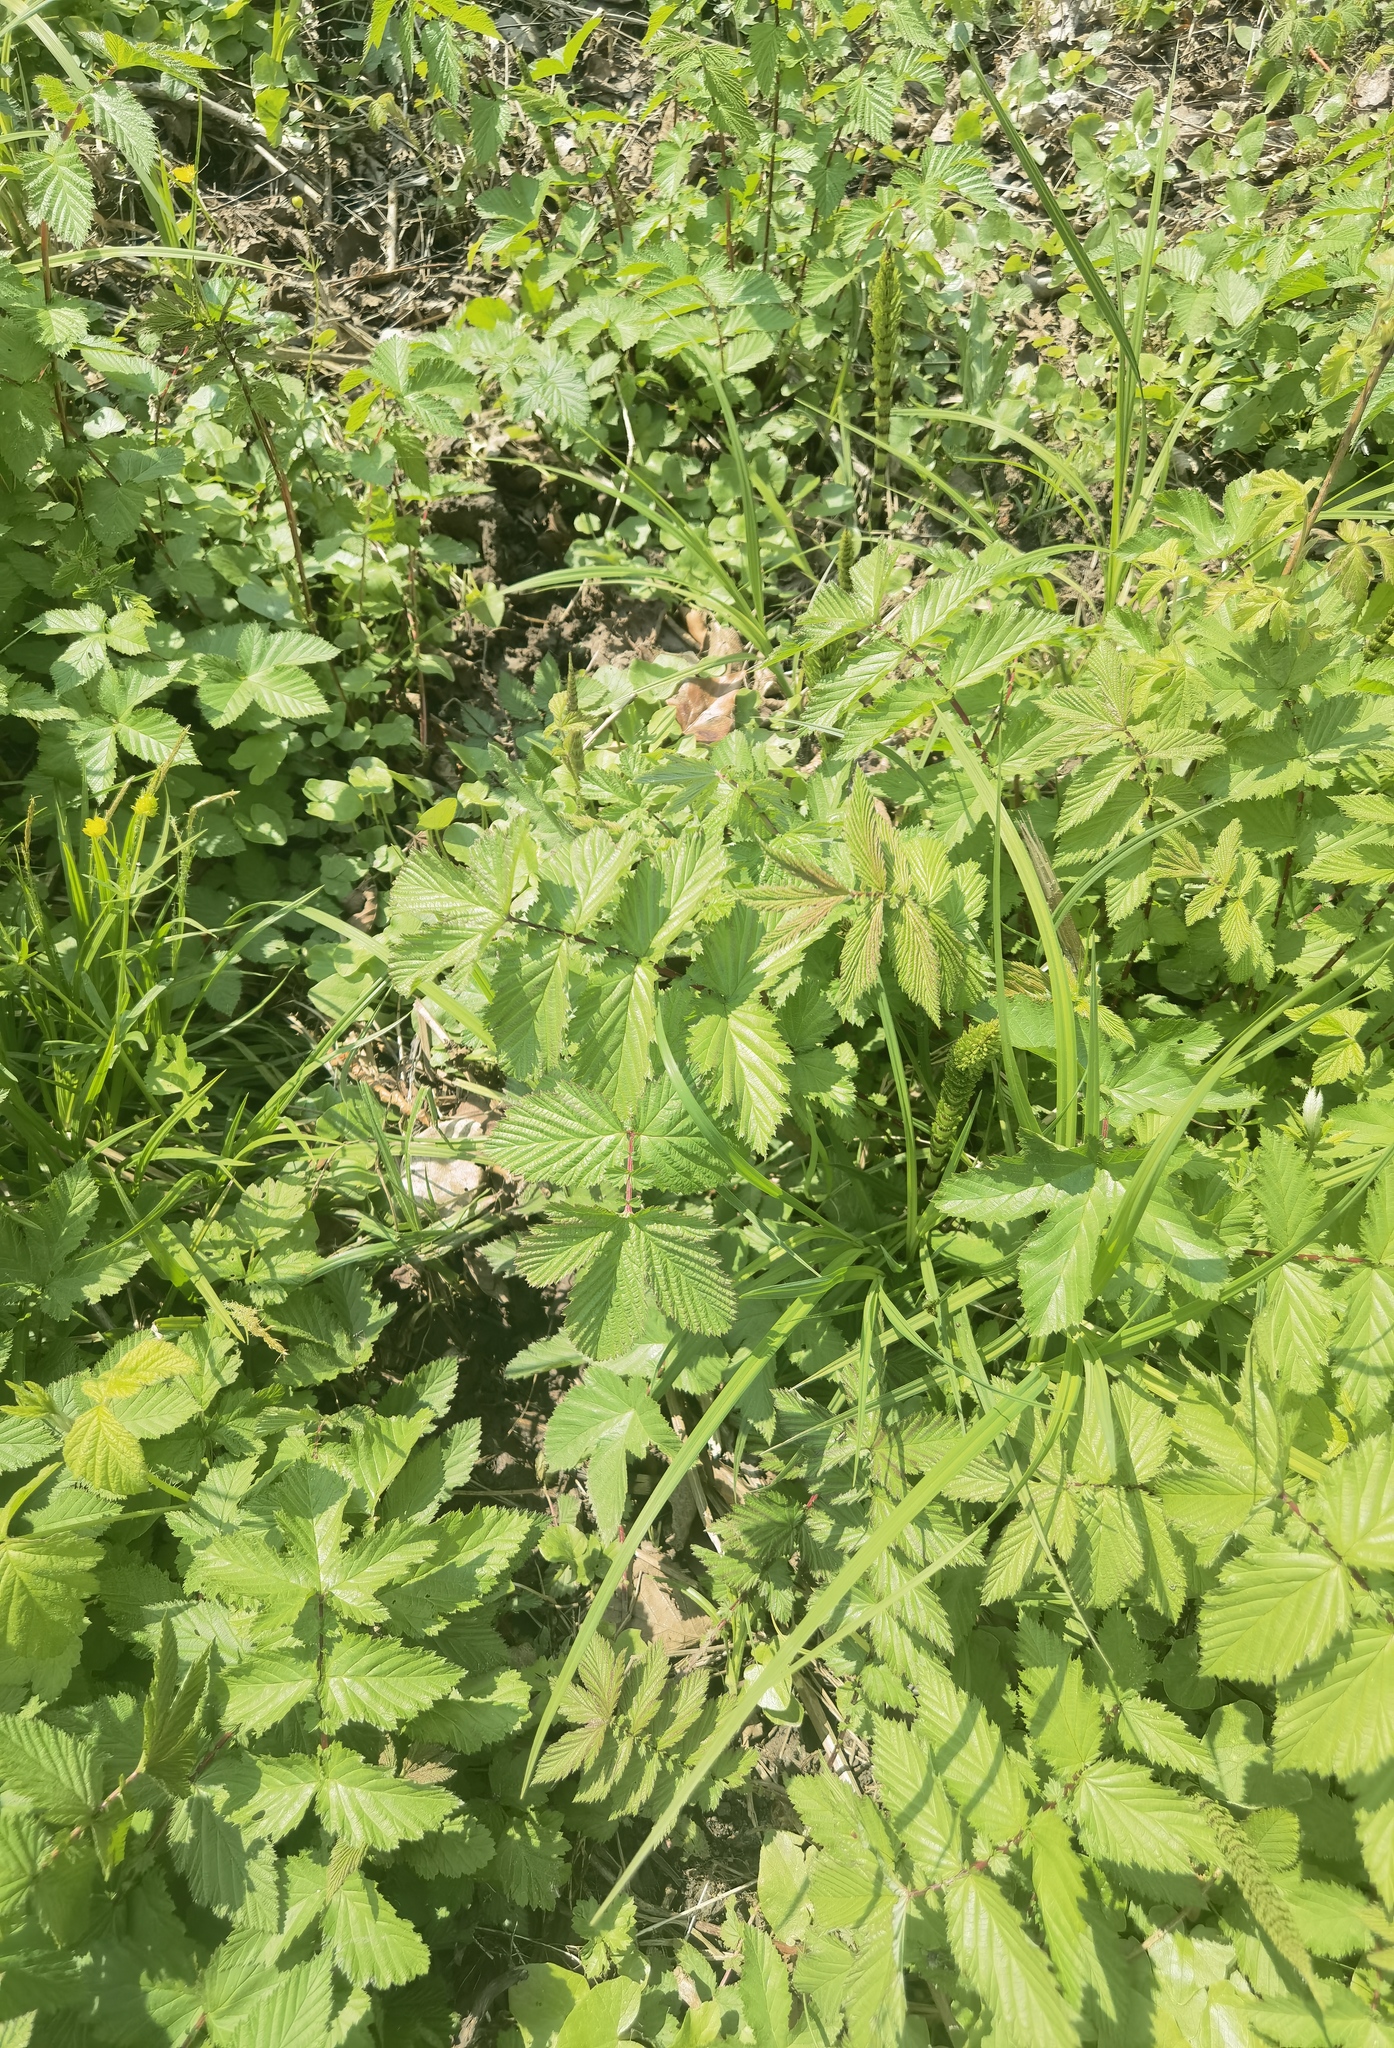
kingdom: Plantae
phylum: Tracheophyta
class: Magnoliopsida
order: Rosales
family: Rosaceae
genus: Filipendula
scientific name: Filipendula ulmaria
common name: Meadowsweet
